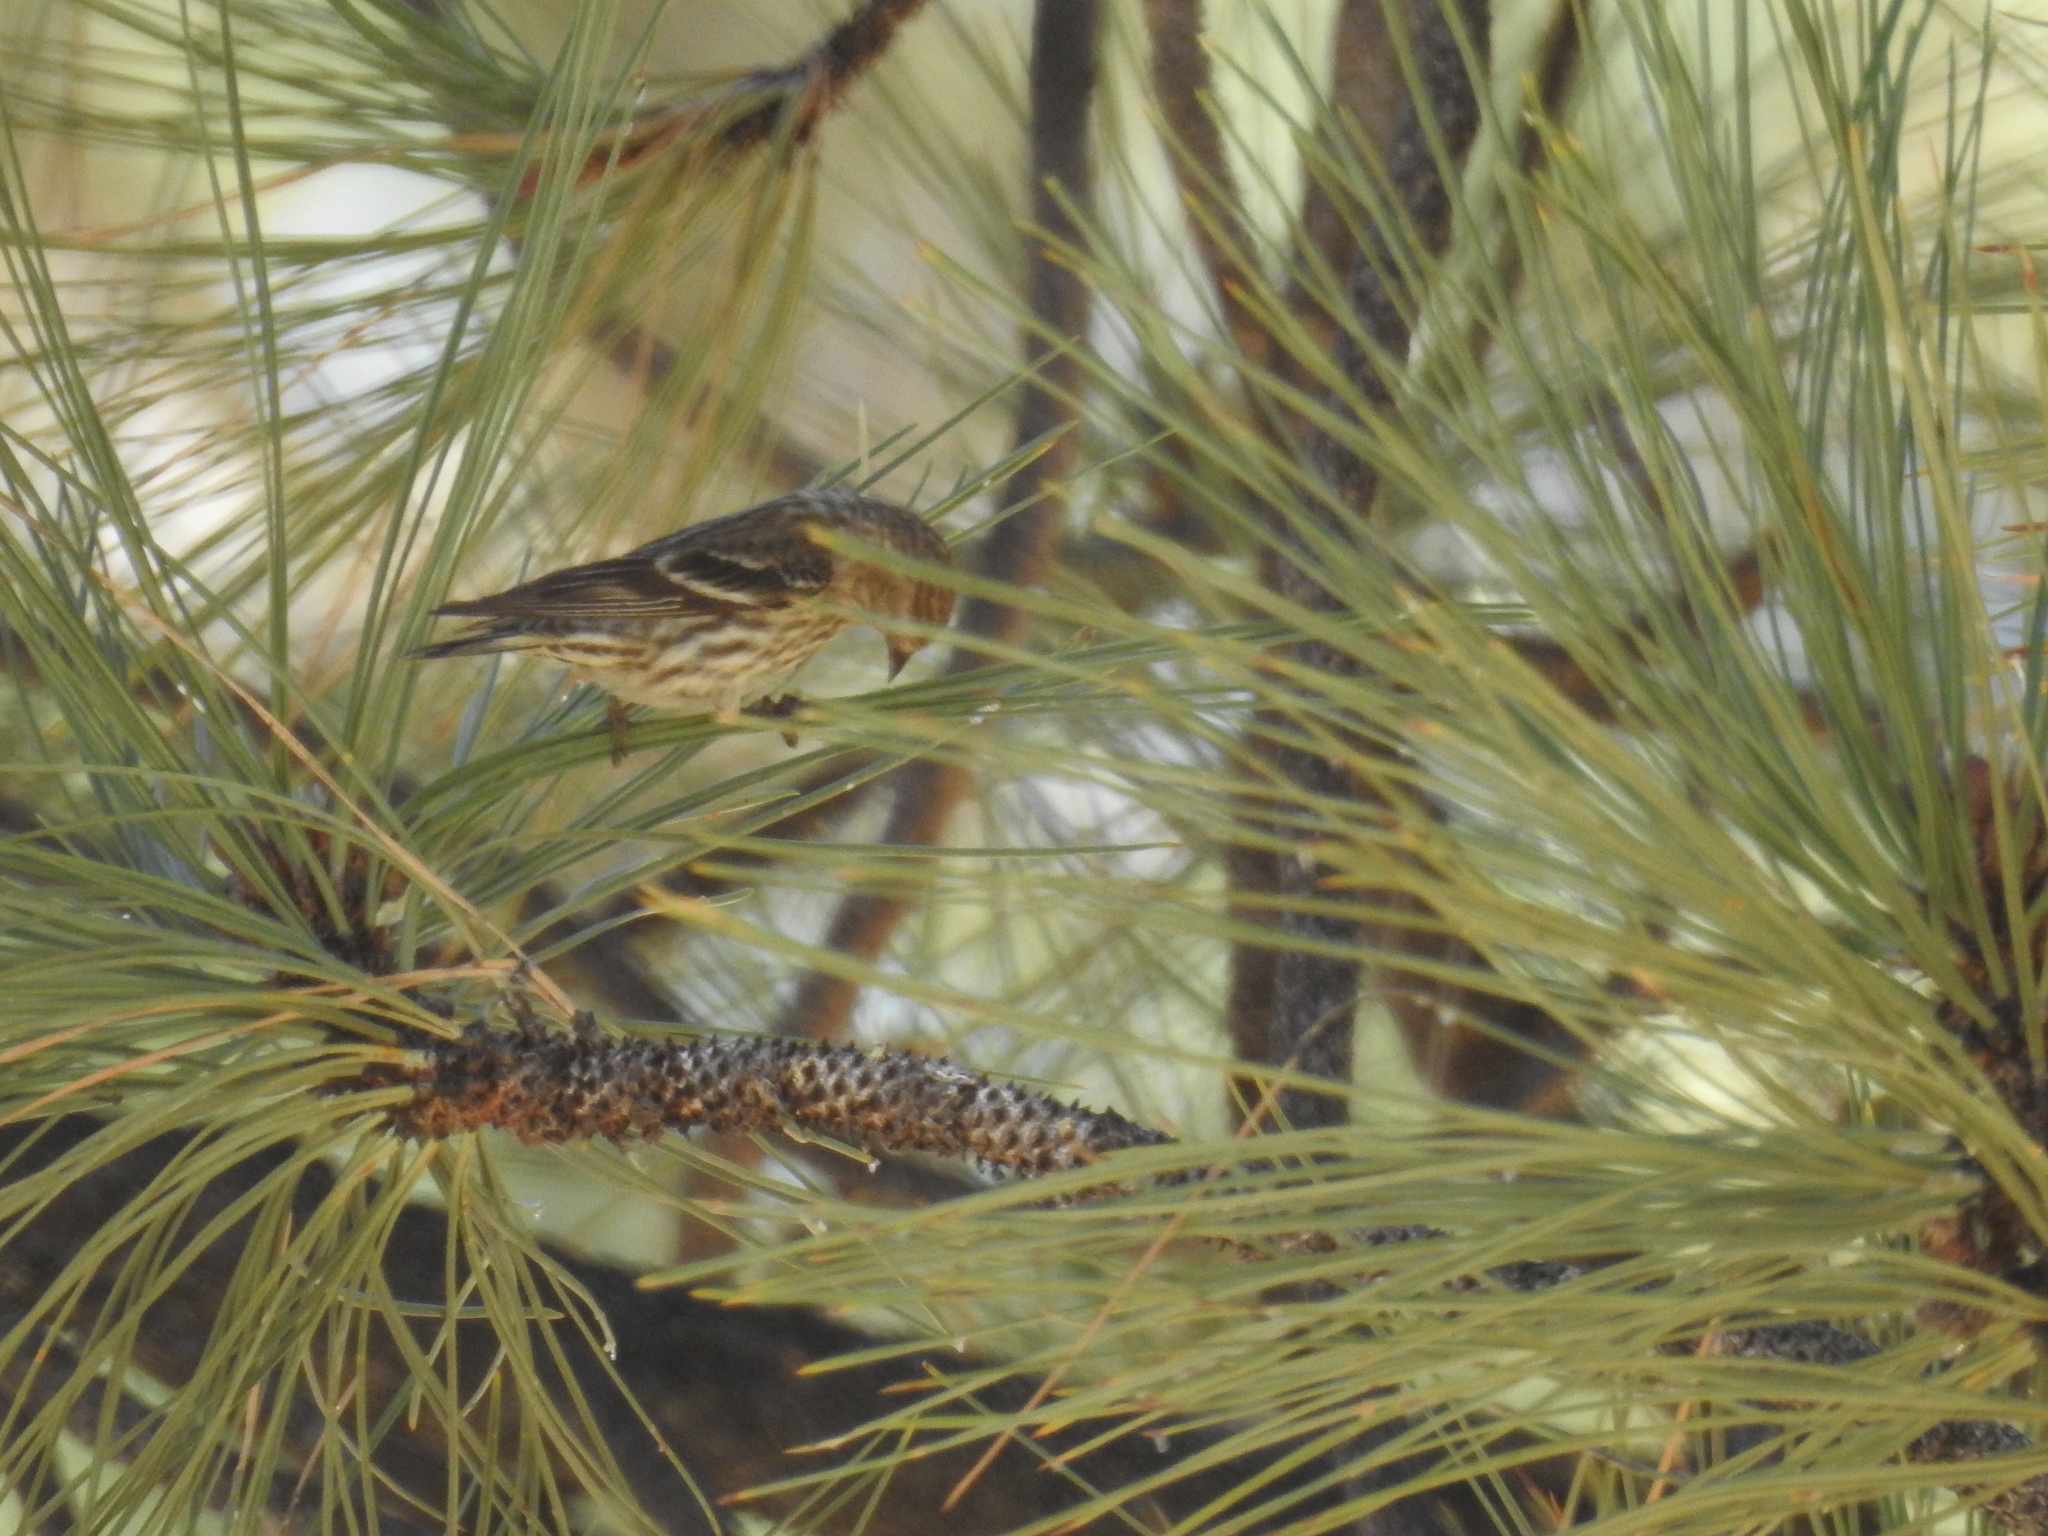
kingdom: Animalia
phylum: Chordata
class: Aves
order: Passeriformes
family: Fringillidae
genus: Spinus
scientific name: Spinus pinus
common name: Pine siskin
